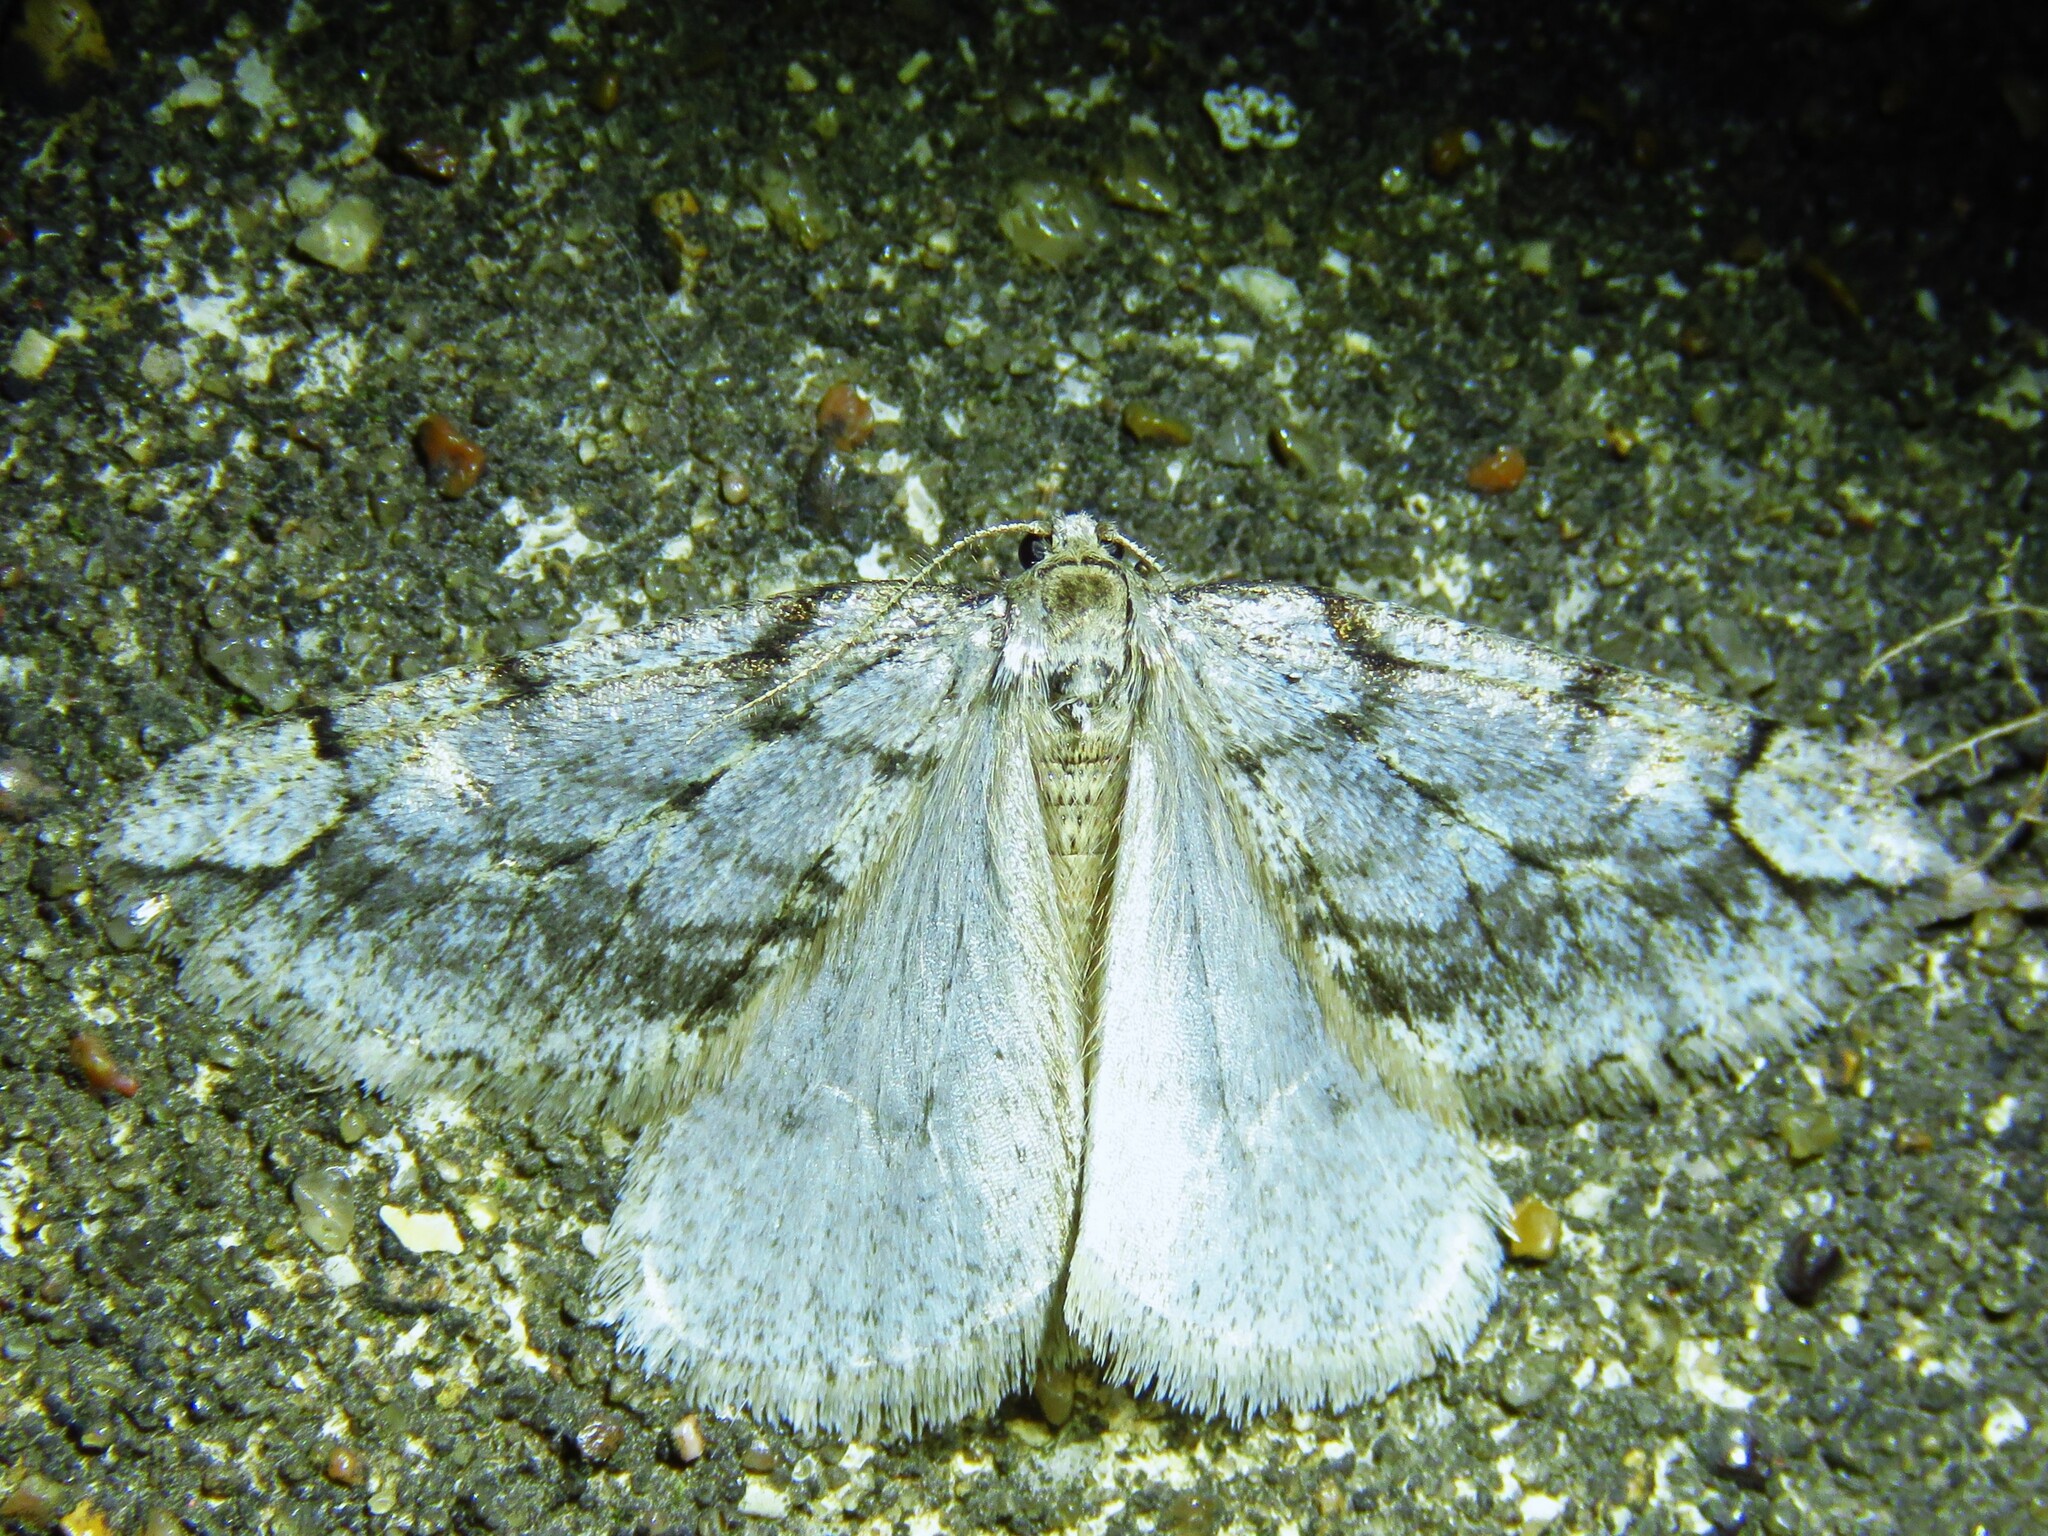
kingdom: Animalia
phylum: Arthropoda
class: Insecta
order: Lepidoptera
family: Geometridae
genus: Paleacrita
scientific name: Paleacrita vernata
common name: Spring cankerworm
